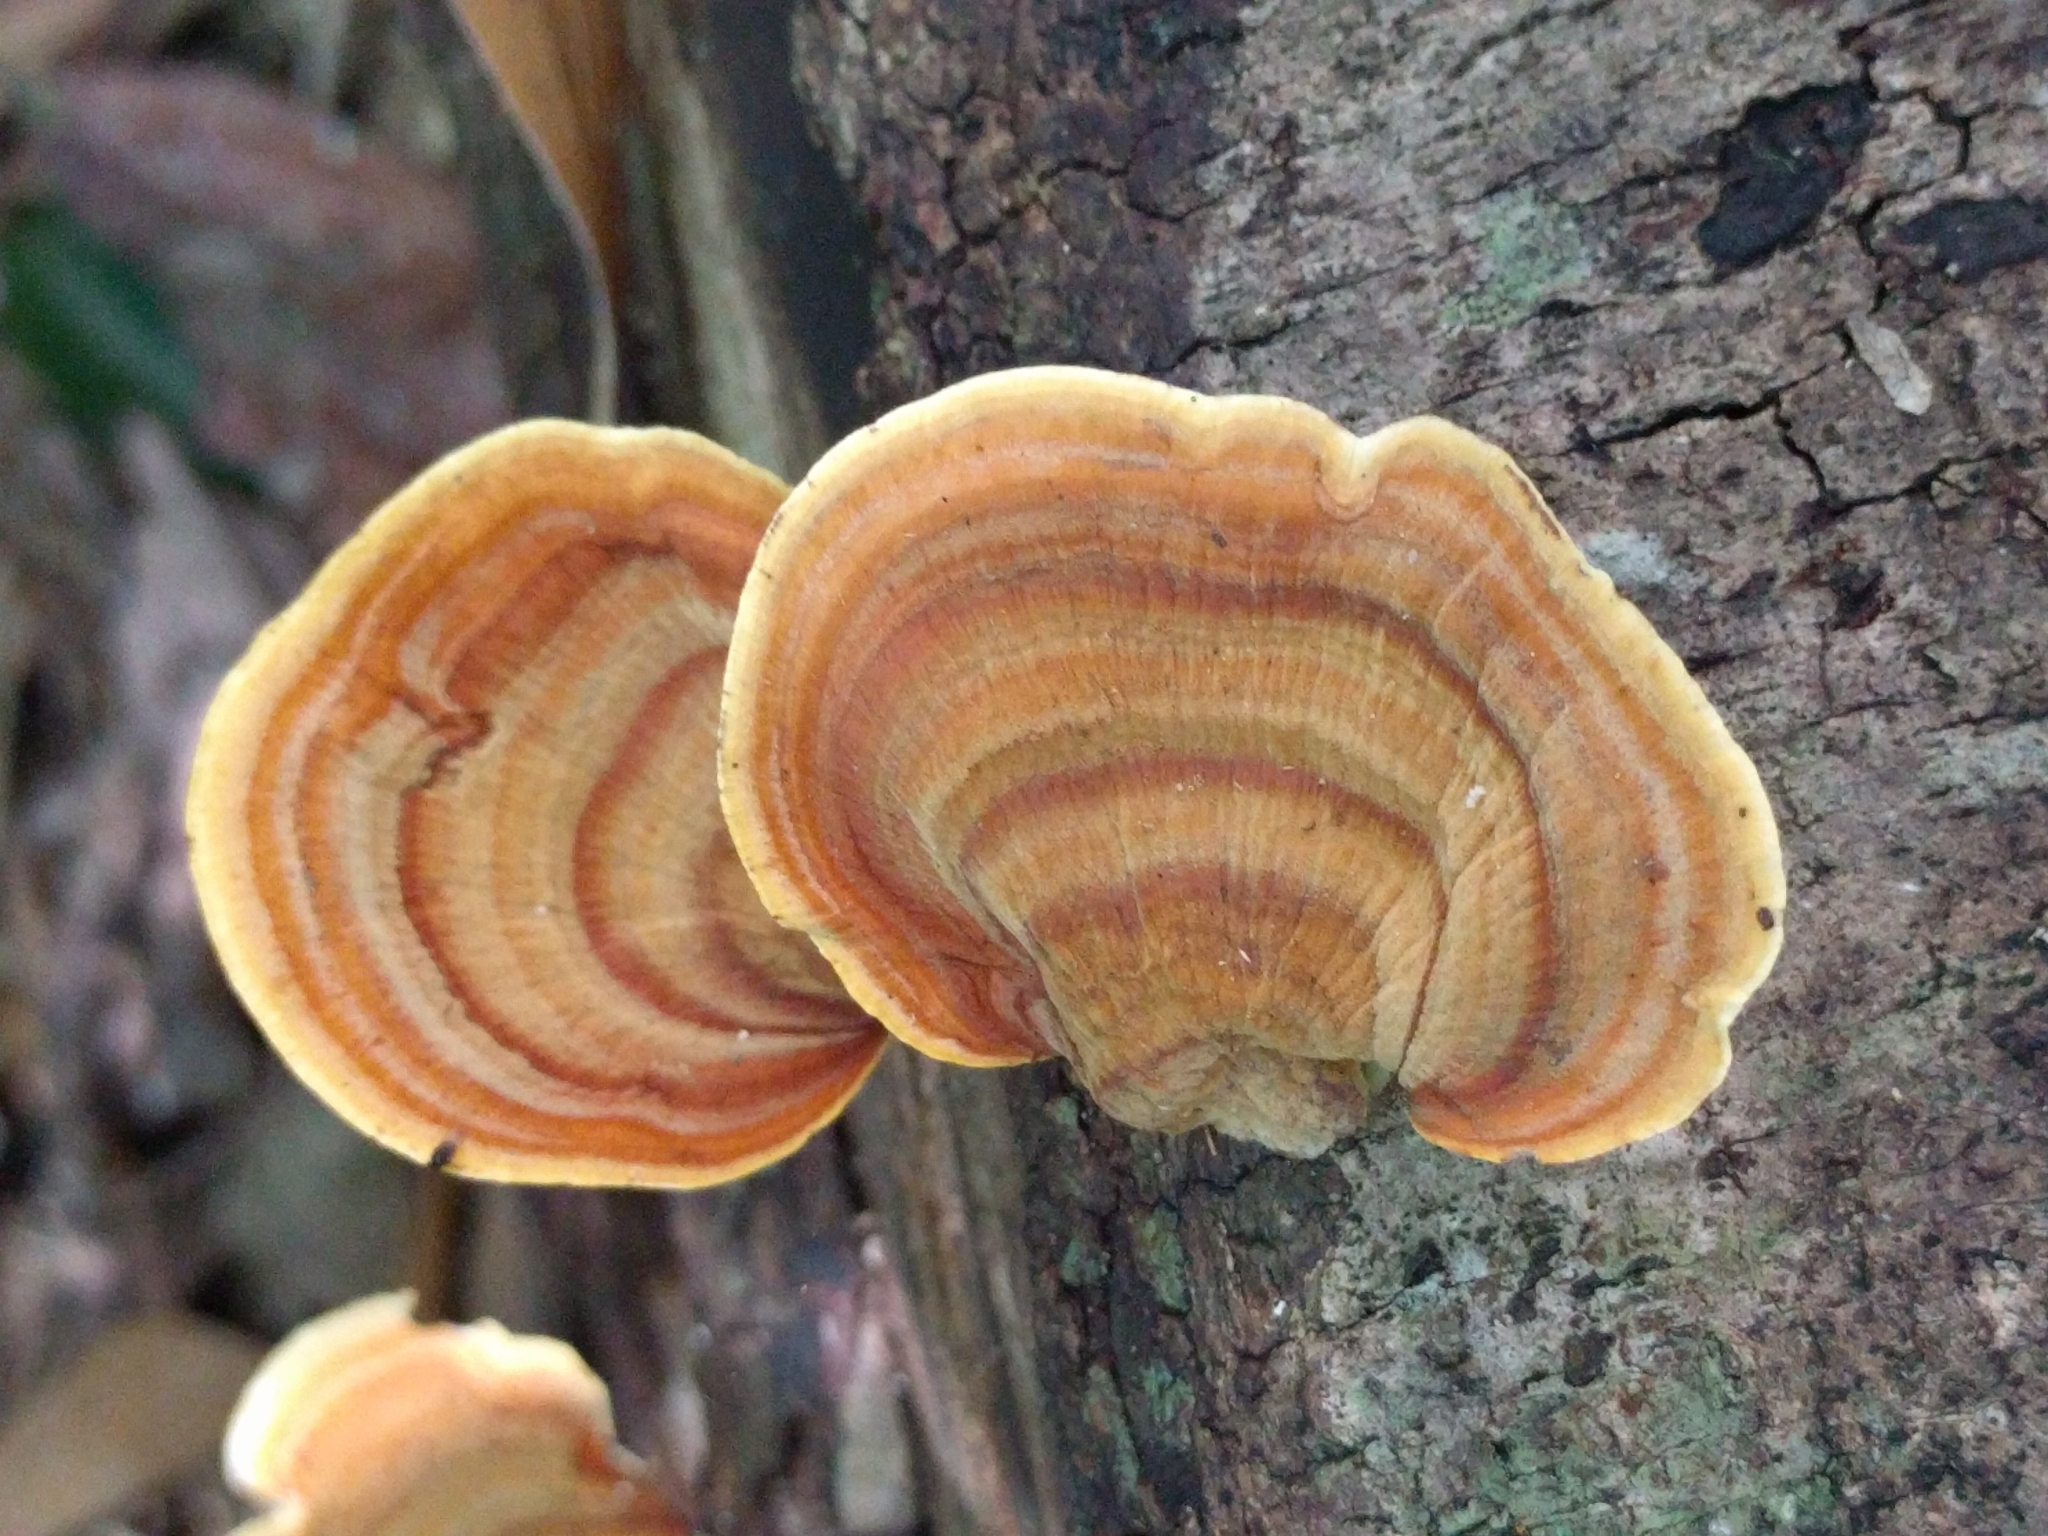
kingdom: Fungi
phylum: Basidiomycota
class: Agaricomycetes
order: Russulales
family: Stereaceae
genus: Stereum
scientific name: Stereum ostrea
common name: False turkeytail
